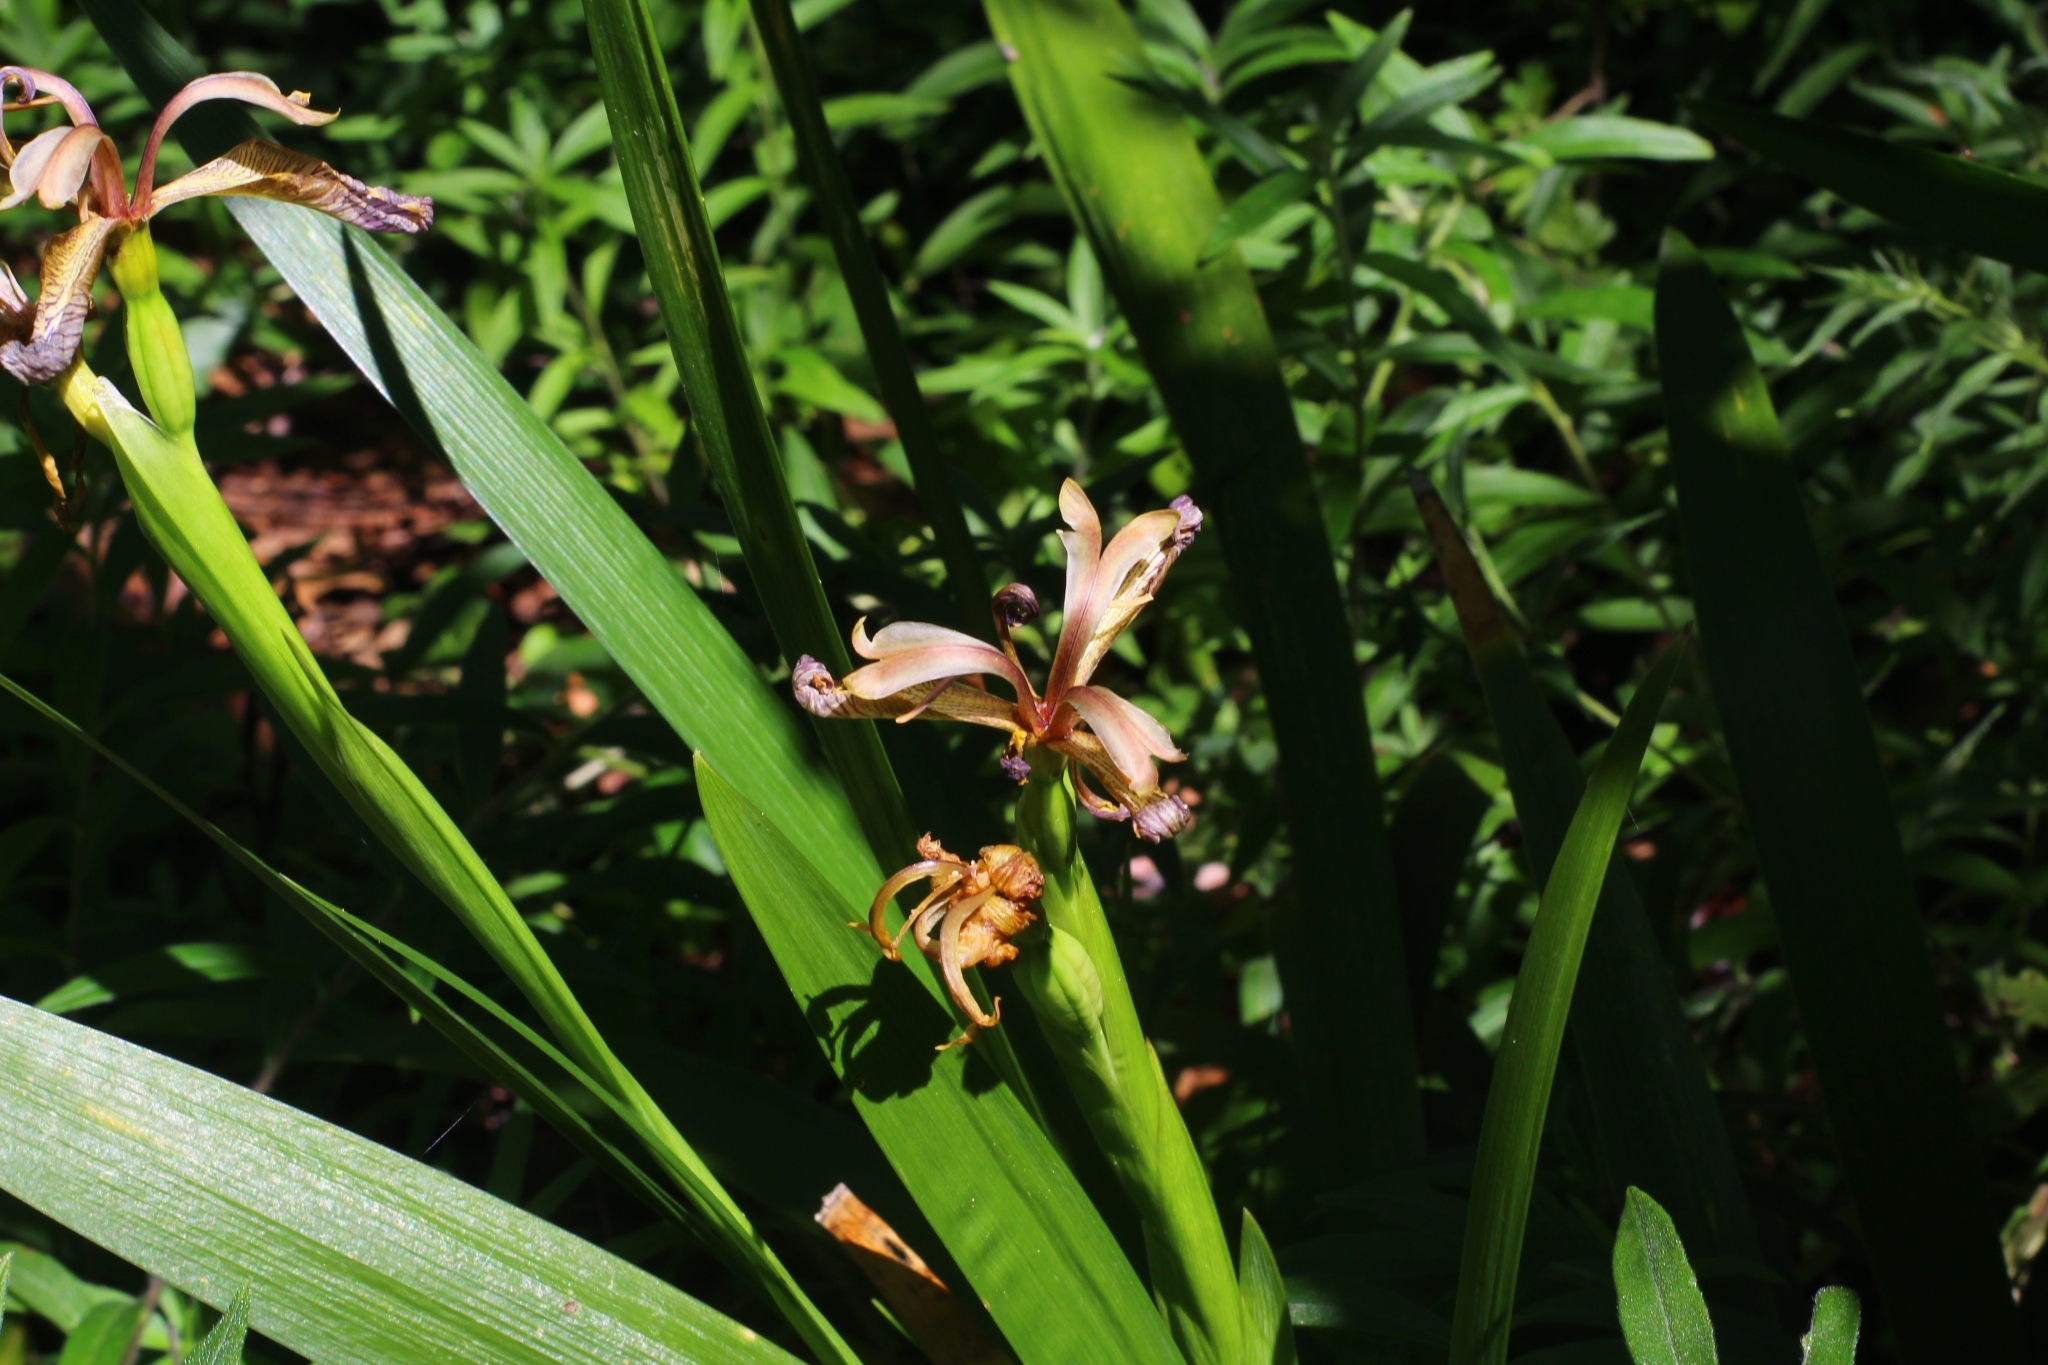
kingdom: Plantae
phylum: Tracheophyta
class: Liliopsida
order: Asparagales
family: Iridaceae
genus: Iris
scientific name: Iris foetidissima
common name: Stinking iris
